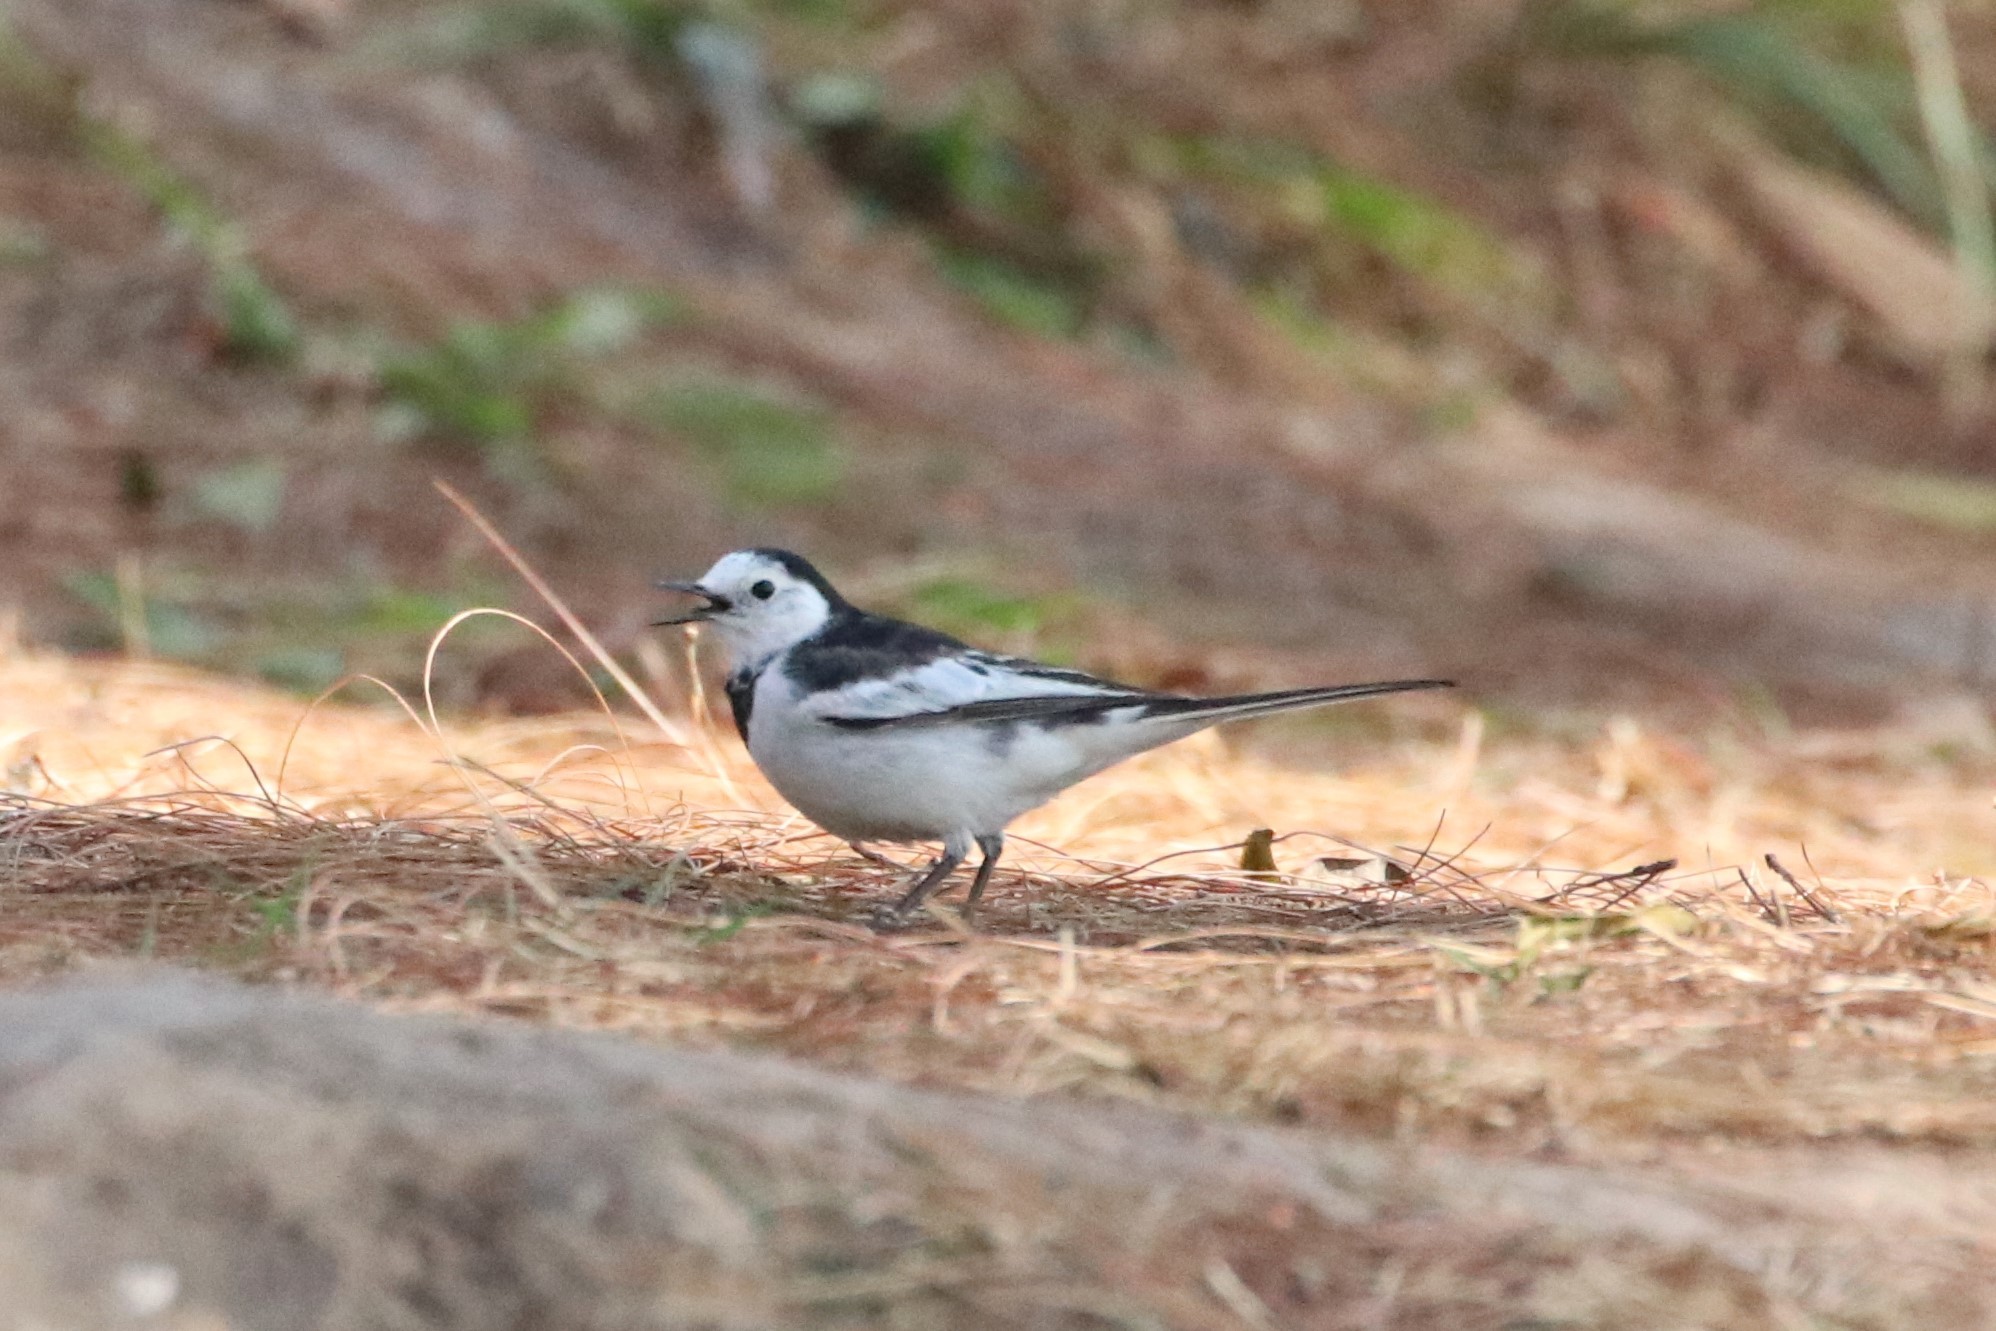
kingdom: Animalia
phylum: Chordata
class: Aves
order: Passeriformes
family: Motacillidae
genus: Motacilla
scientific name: Motacilla alba
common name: White wagtail
